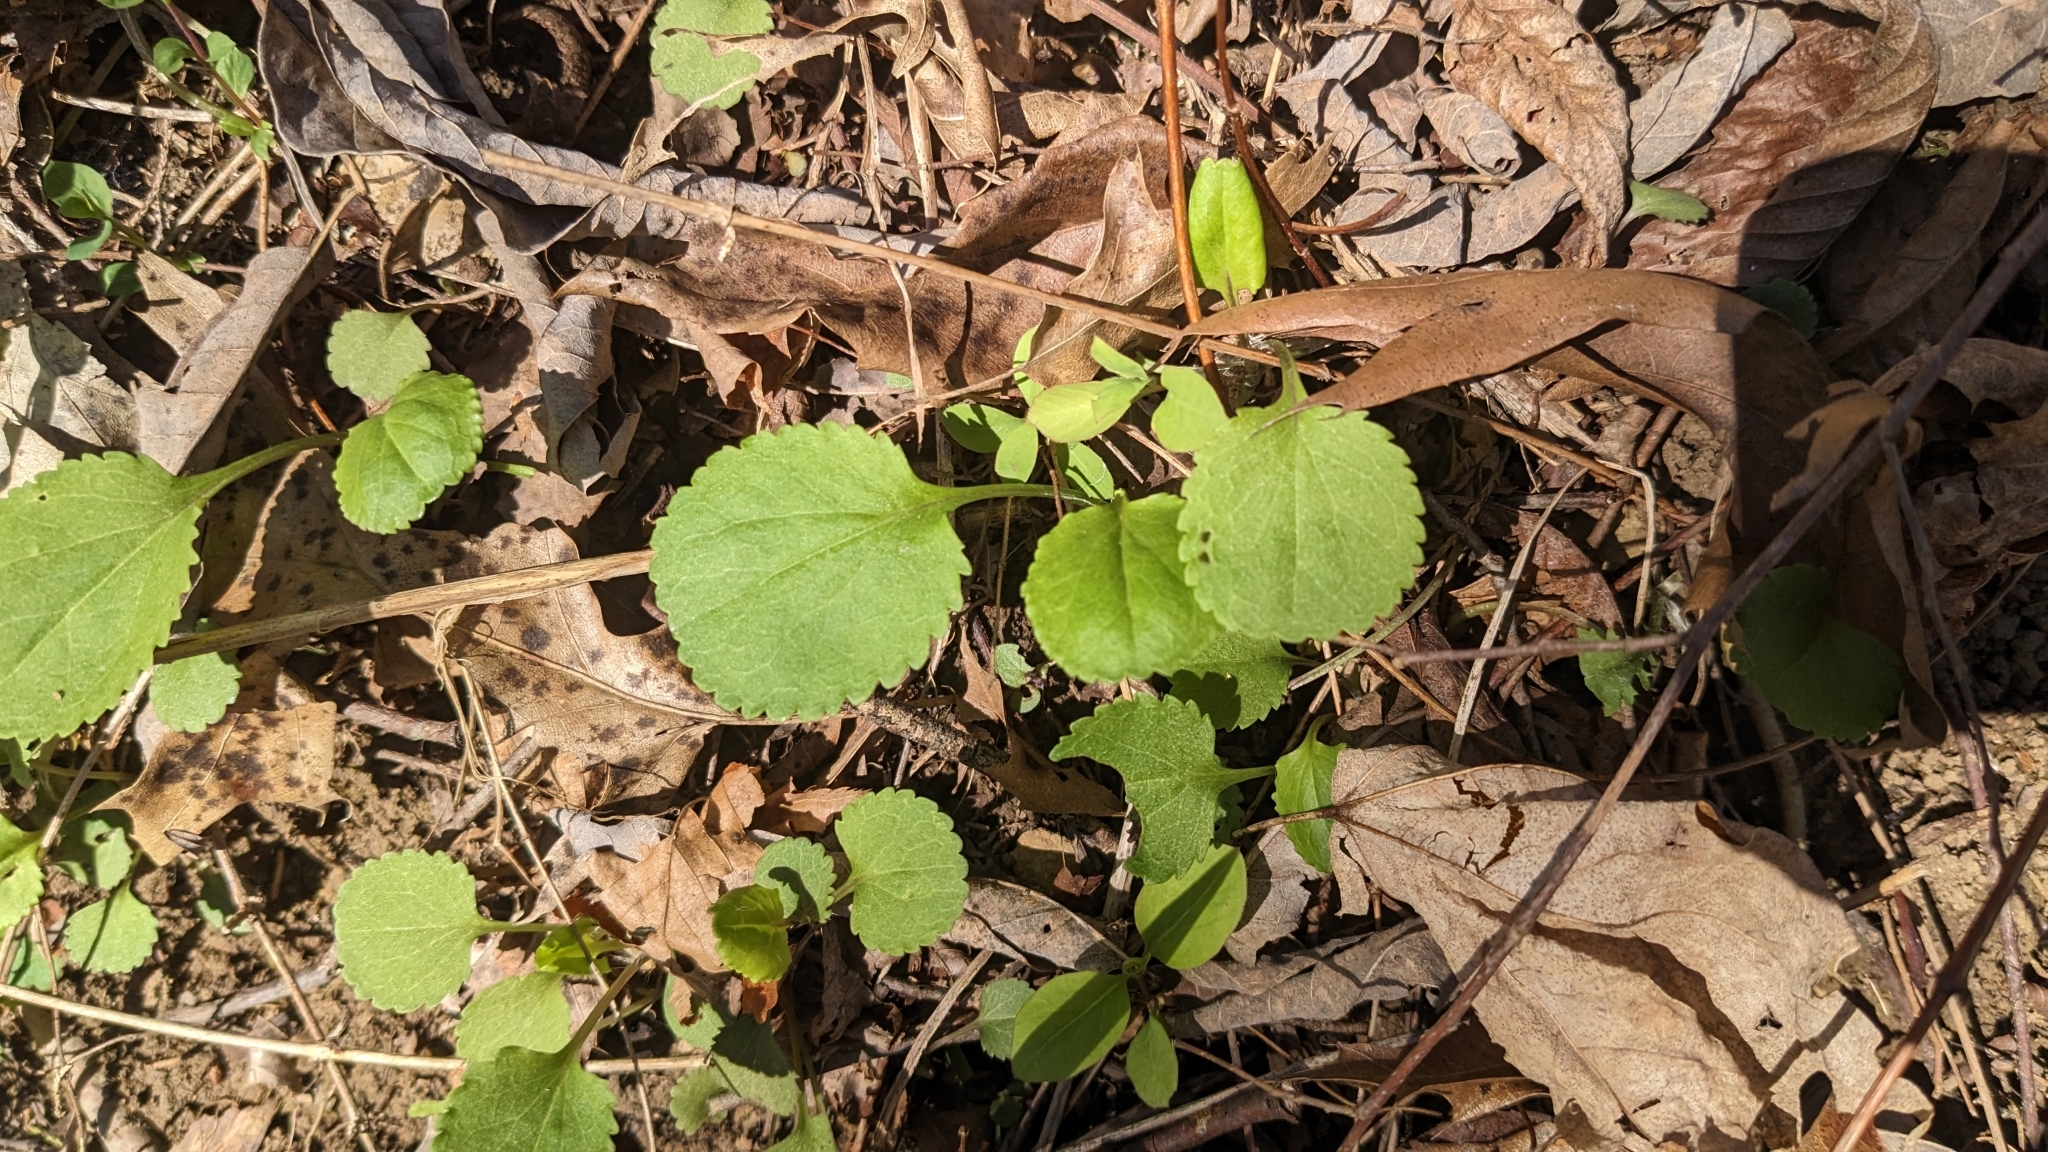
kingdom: Plantae
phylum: Tracheophyta
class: Magnoliopsida
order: Asterales
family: Asteraceae
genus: Packera
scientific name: Packera obovata
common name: Round-leaf ragwort
